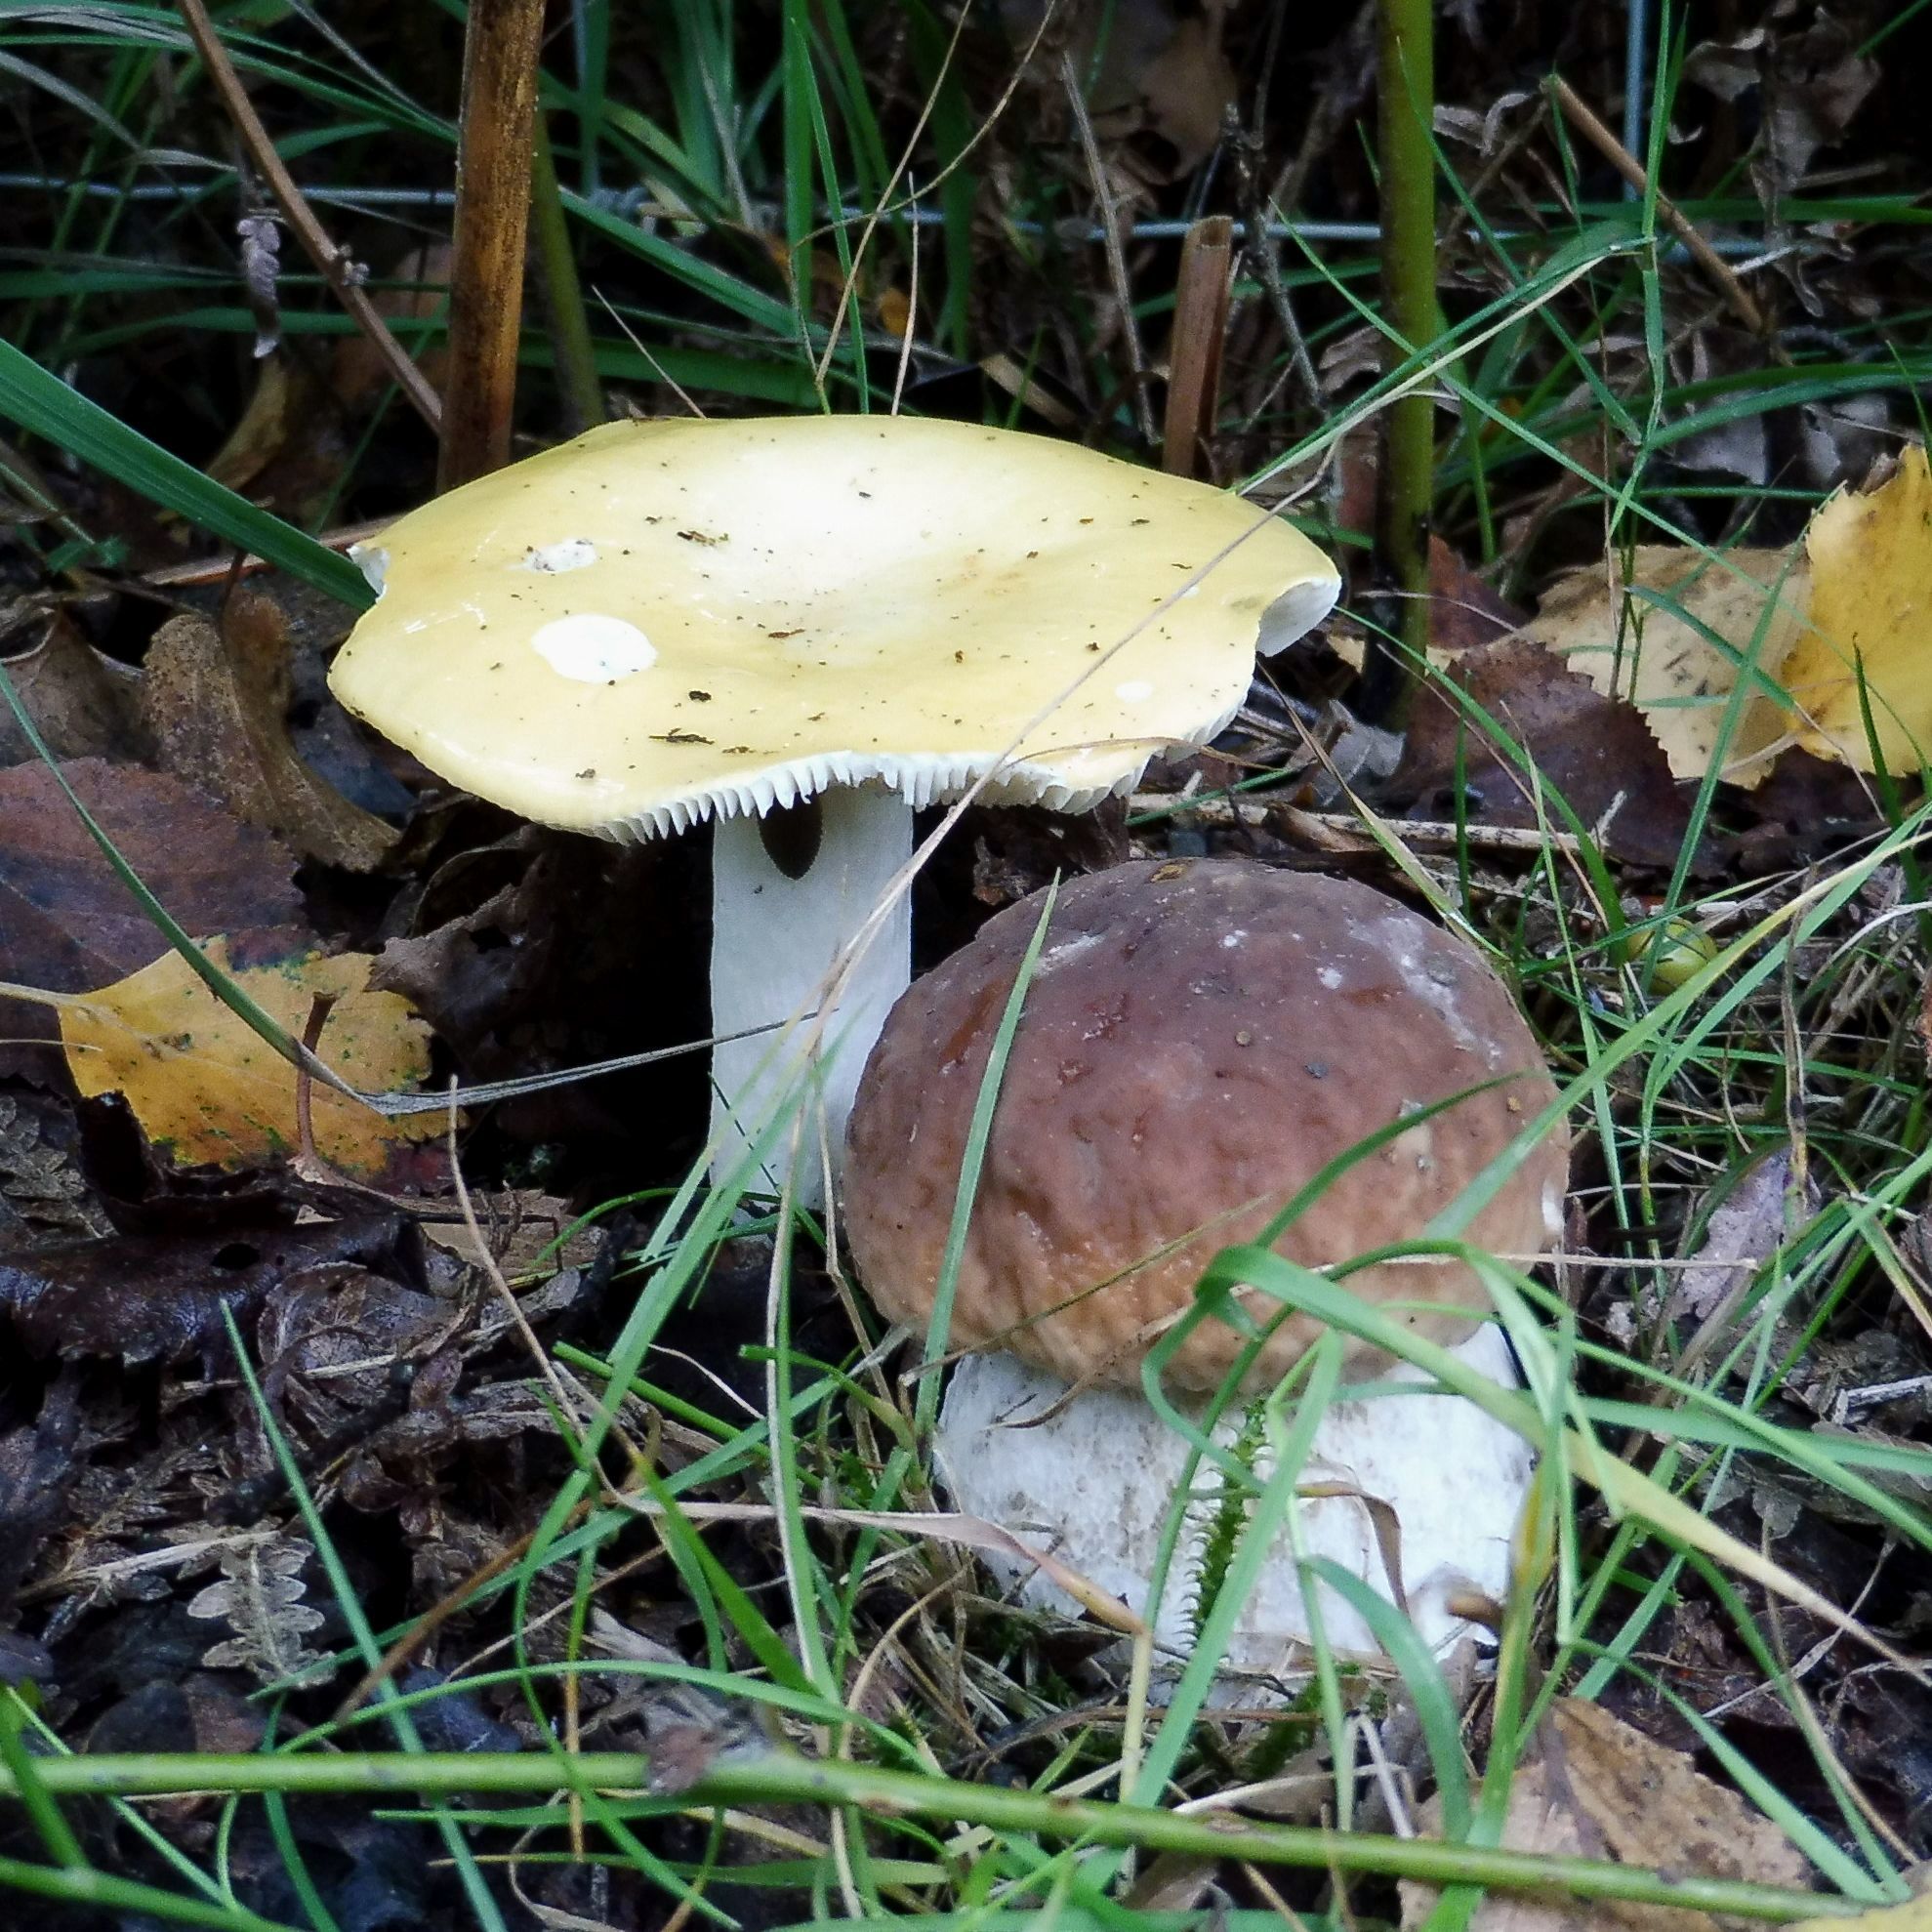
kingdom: Fungi
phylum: Basidiomycota
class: Agaricomycetes
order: Boletales
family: Boletaceae
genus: Boletus
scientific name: Boletus edulis
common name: Cep
